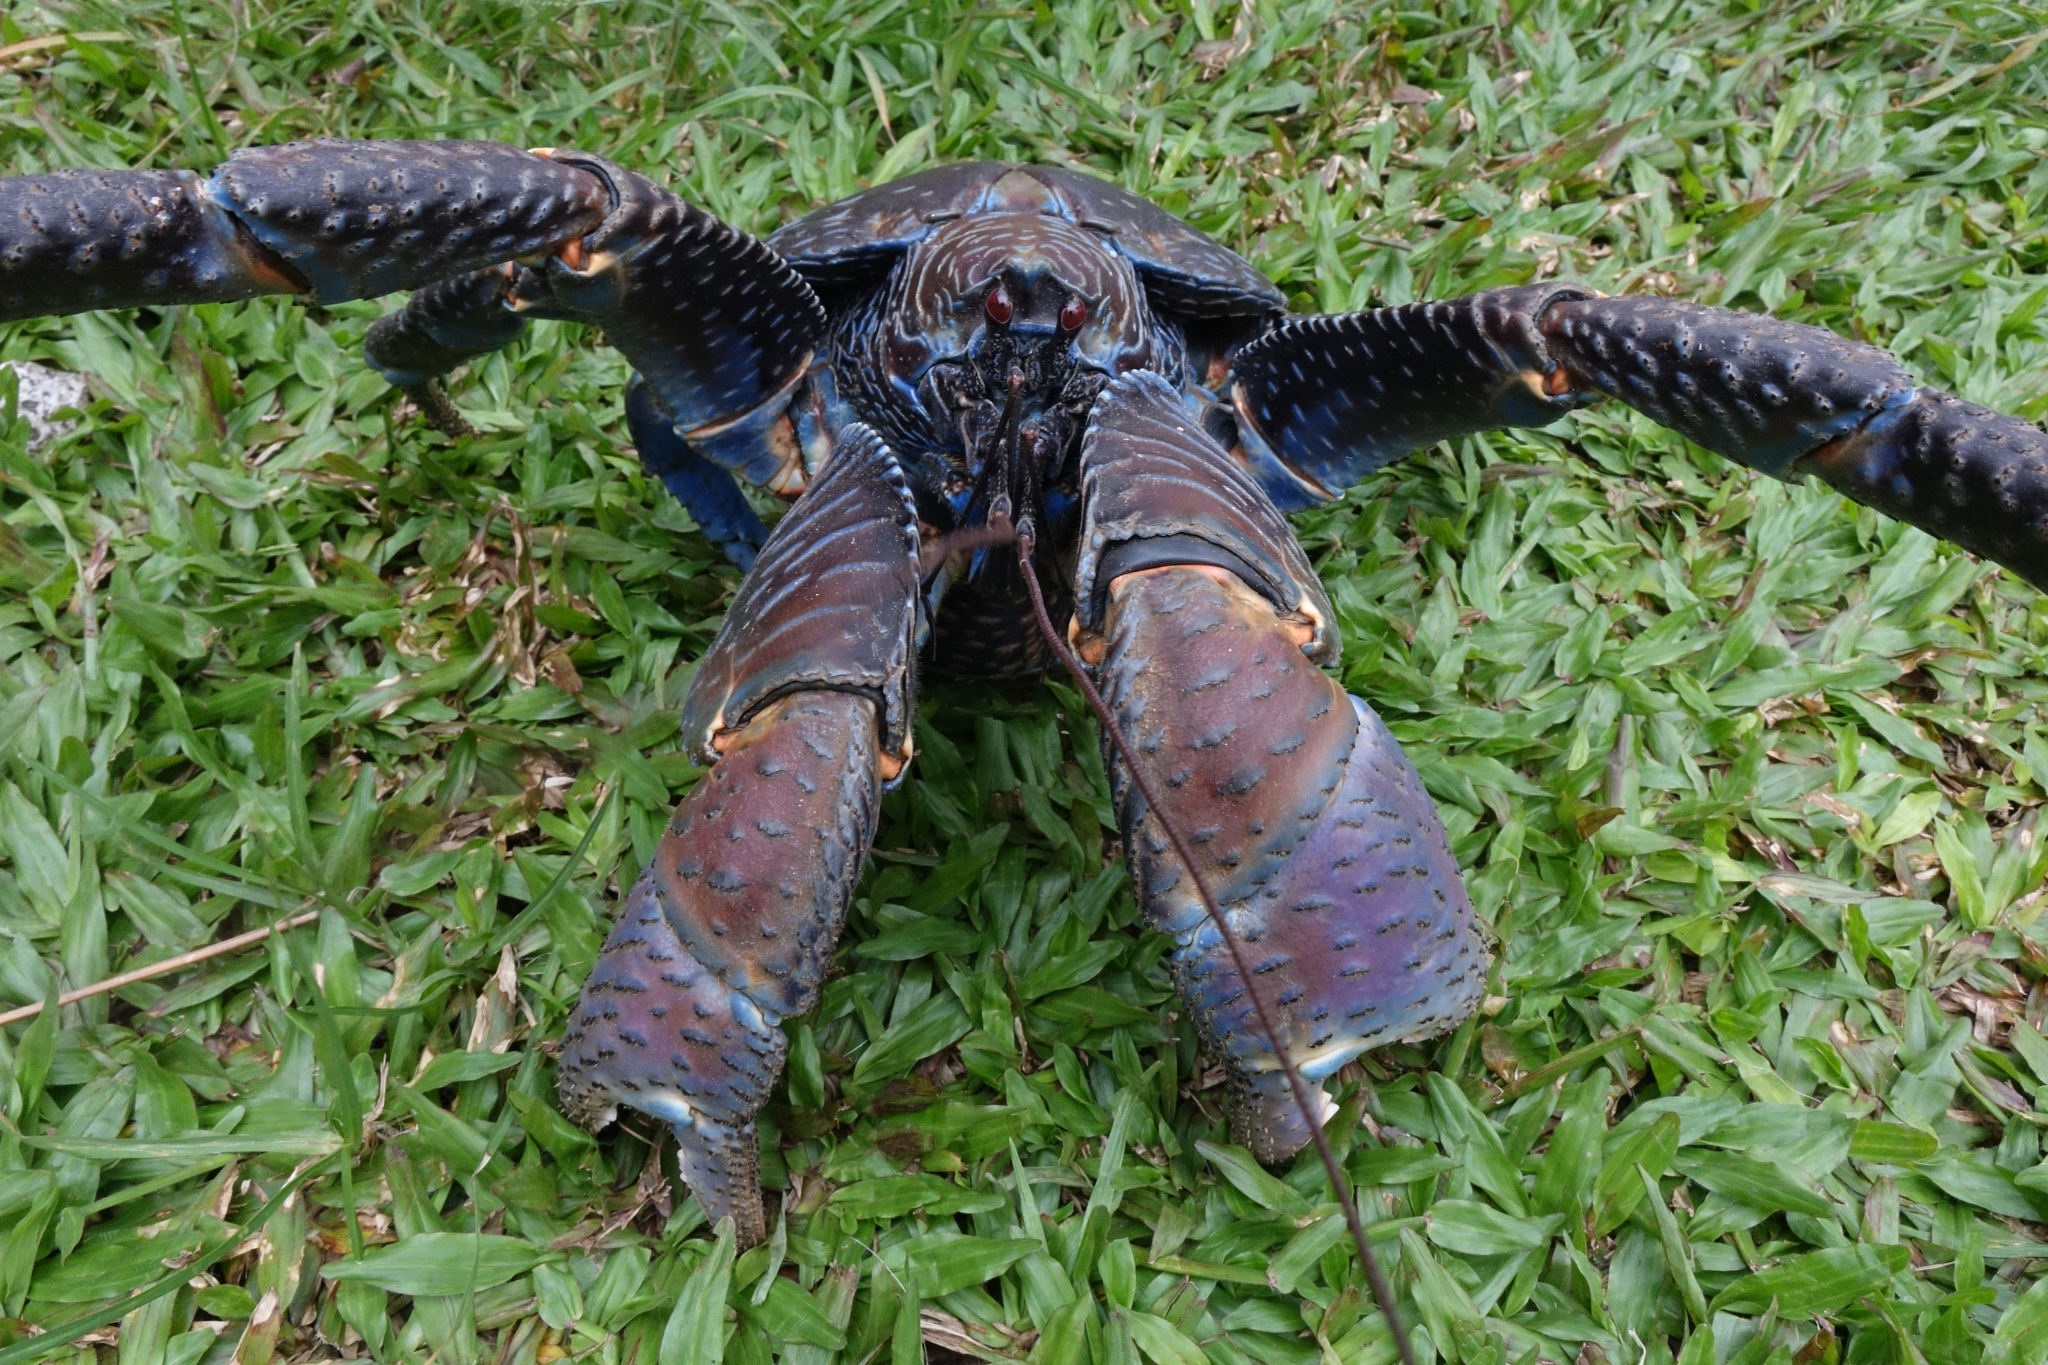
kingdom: Animalia
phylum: Arthropoda
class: Malacostraca
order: Decapoda
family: Coenobitidae
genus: Birgus
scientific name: Birgus latro
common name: Coconut crab
